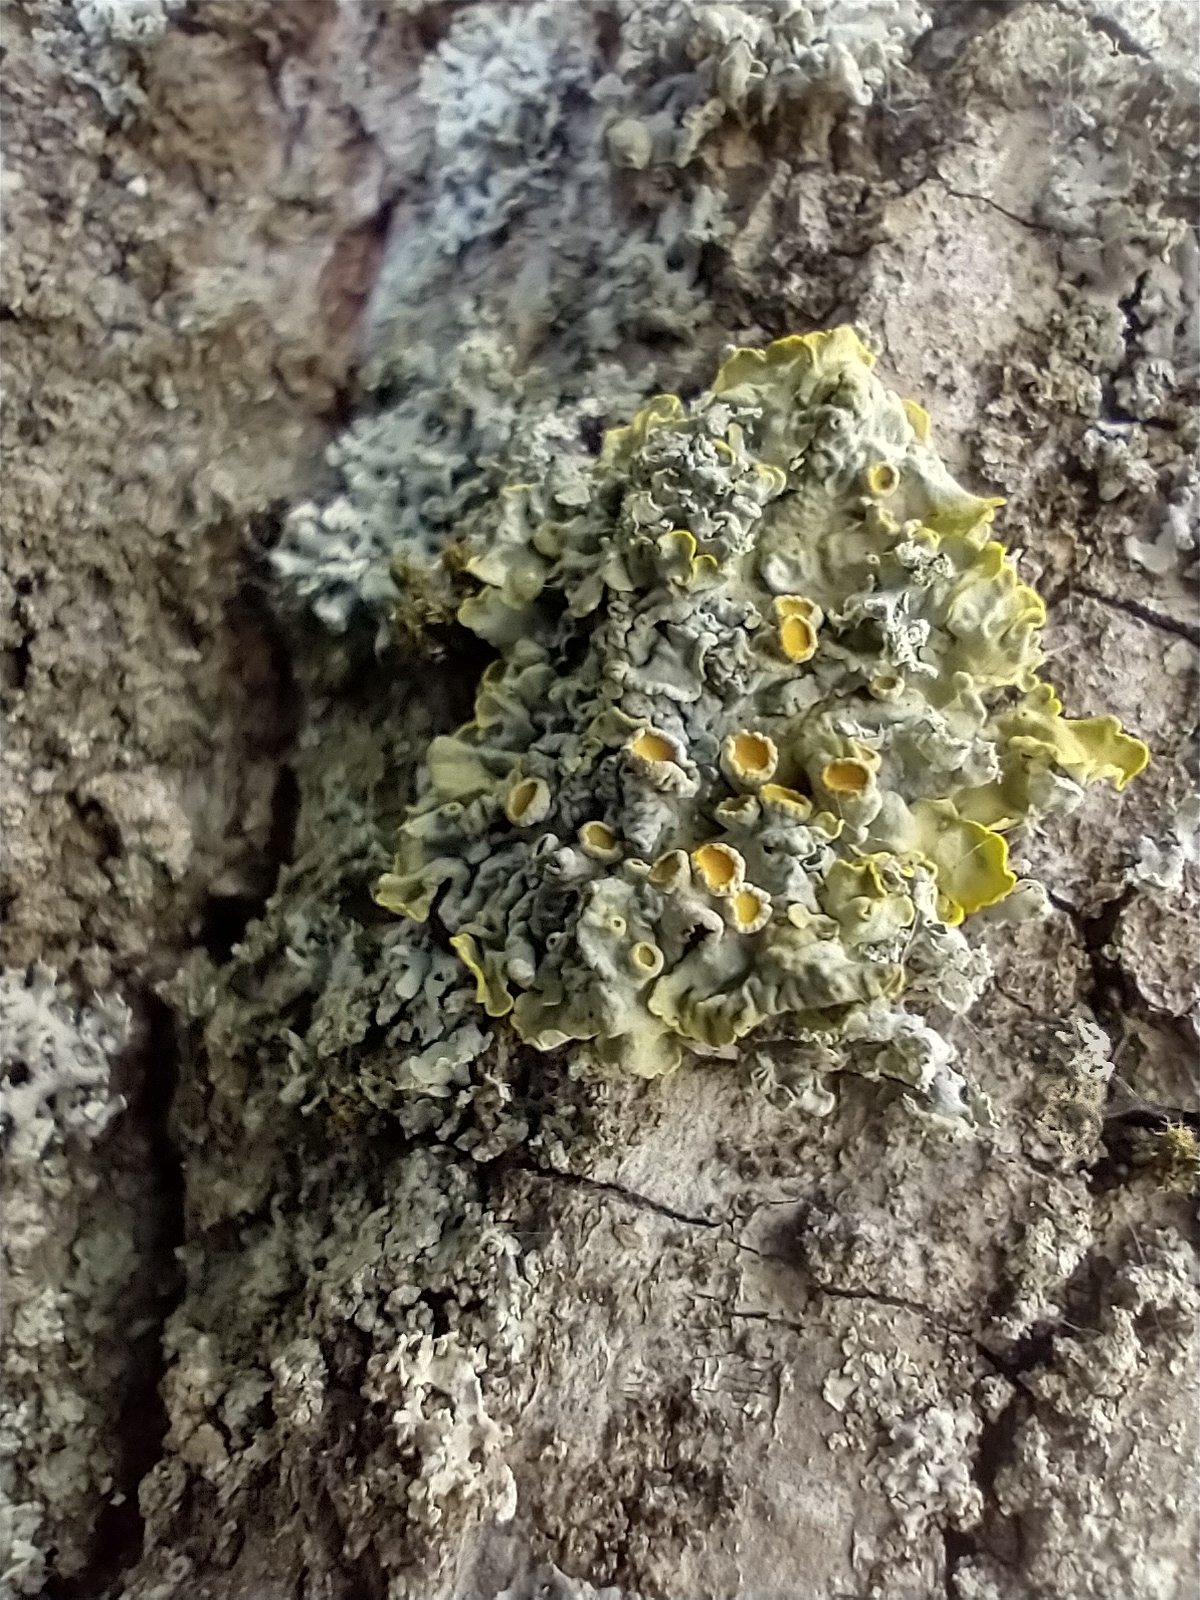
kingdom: Fungi
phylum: Ascomycota
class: Lecanoromycetes
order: Teloschistales
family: Teloschistaceae
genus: Xanthoria
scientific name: Xanthoria parietina
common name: Common orange lichen
